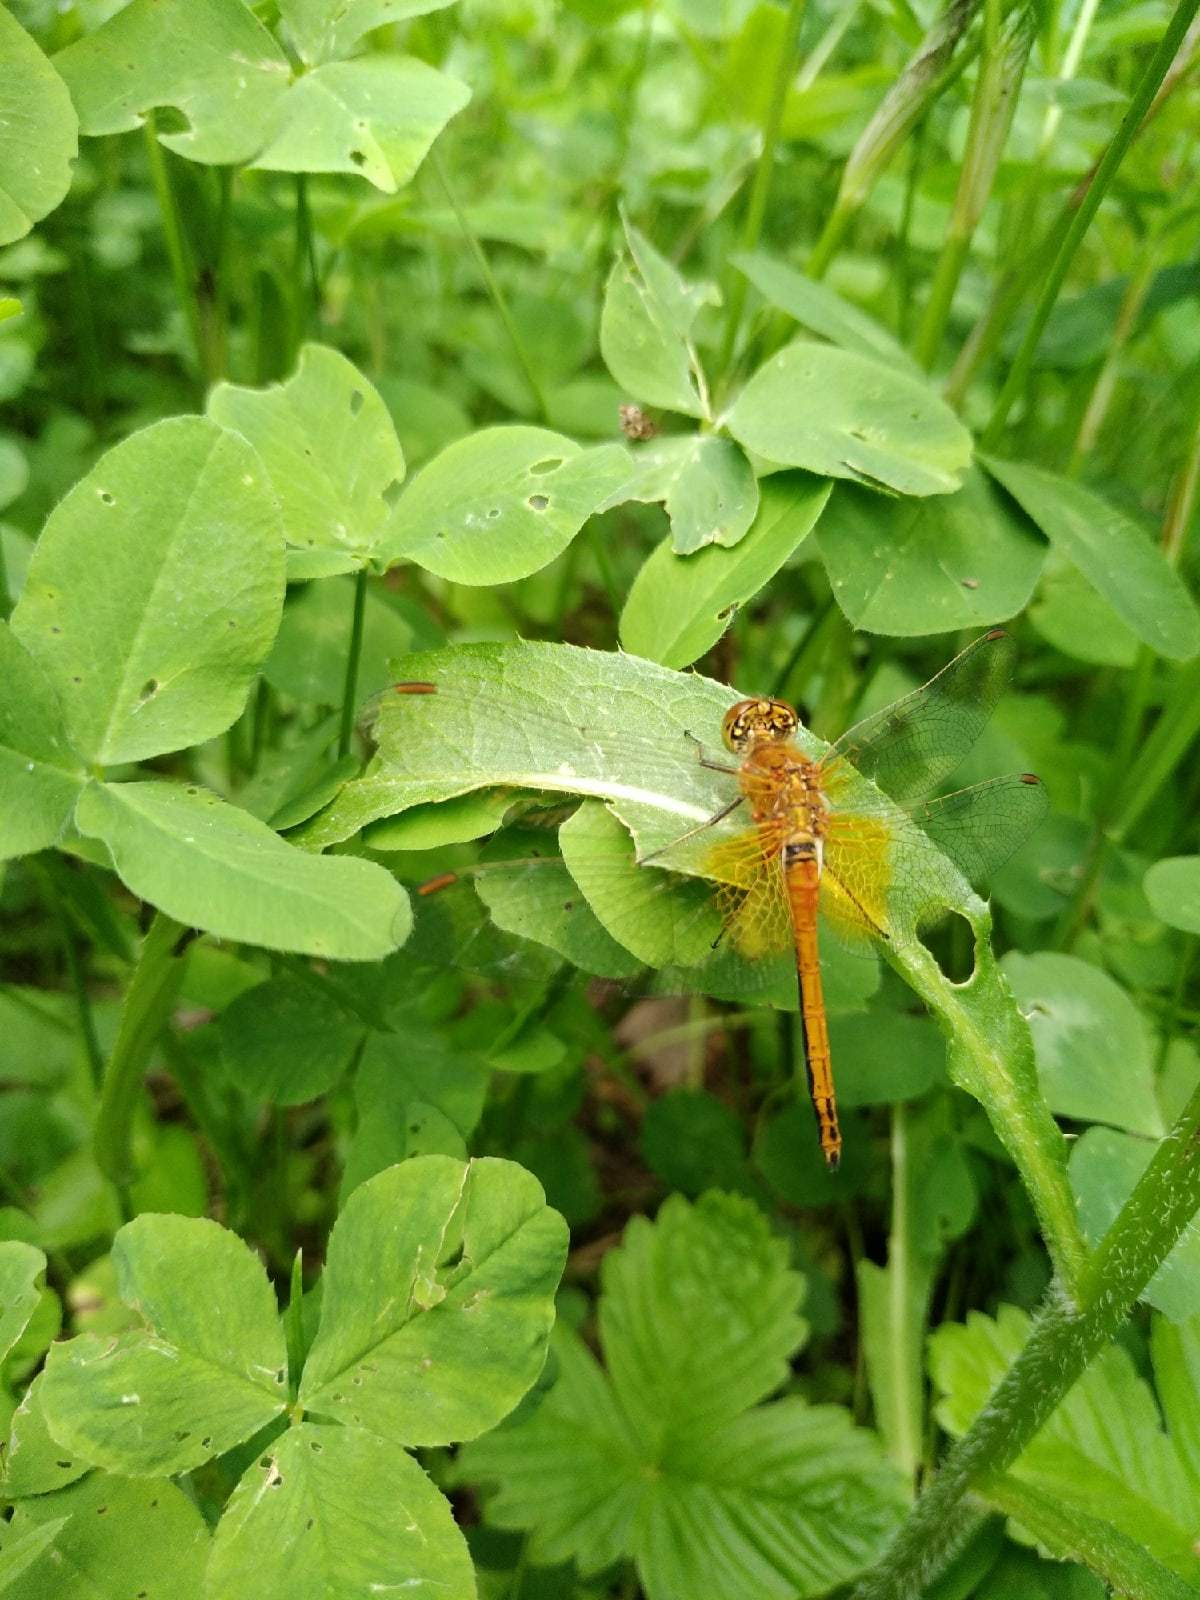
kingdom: Animalia
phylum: Arthropoda
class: Insecta
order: Odonata
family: Libellulidae
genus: Sympetrum
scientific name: Sympetrum flaveolum
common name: Yellow-winged darter
